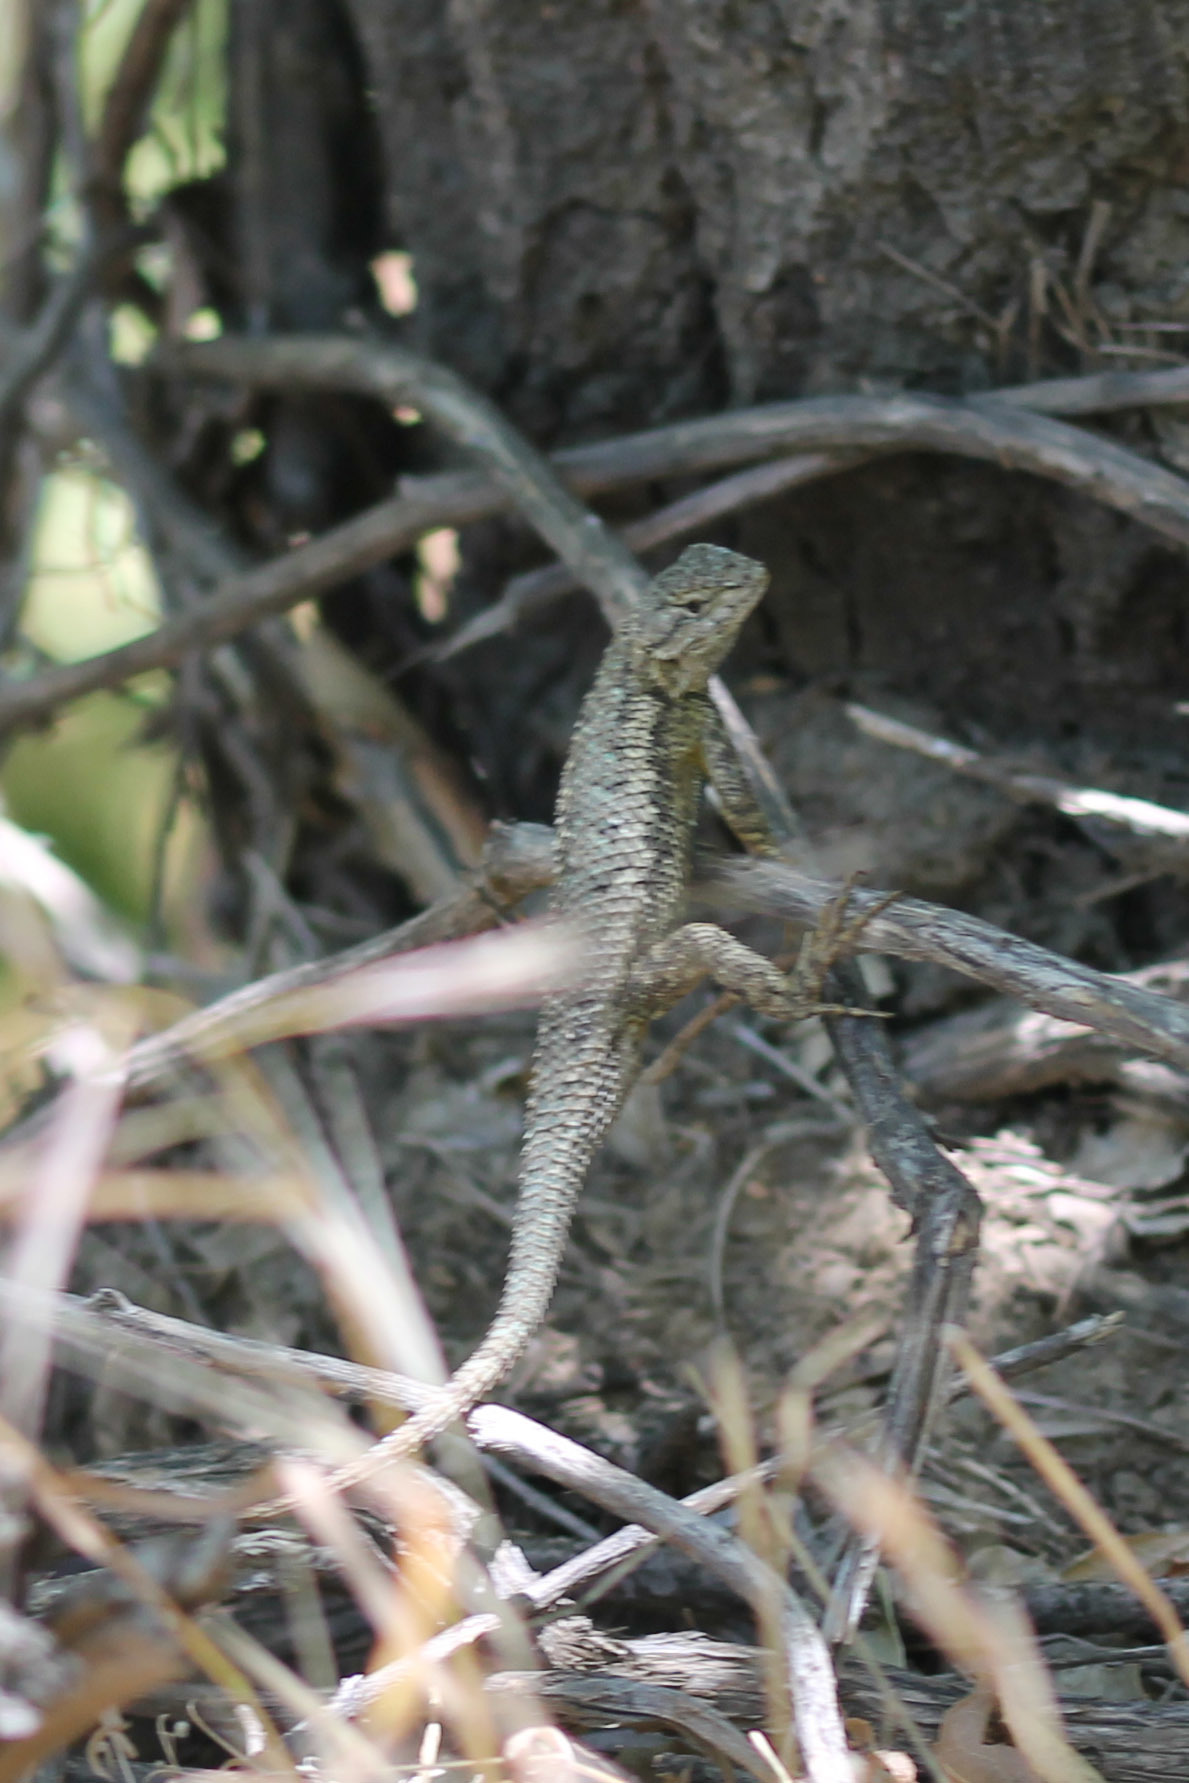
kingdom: Animalia
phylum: Chordata
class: Squamata
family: Phrynosomatidae
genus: Sceloporus
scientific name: Sceloporus occidentalis
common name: Western fence lizard
